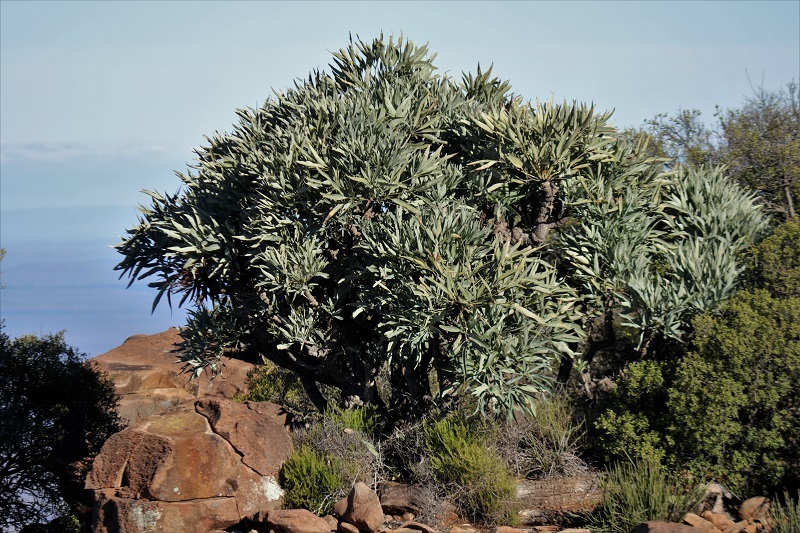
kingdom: Plantae
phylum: Tracheophyta
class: Magnoliopsida
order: Apiales
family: Araliaceae
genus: Cussonia
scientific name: Cussonia paniculata
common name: Cabbagetree
